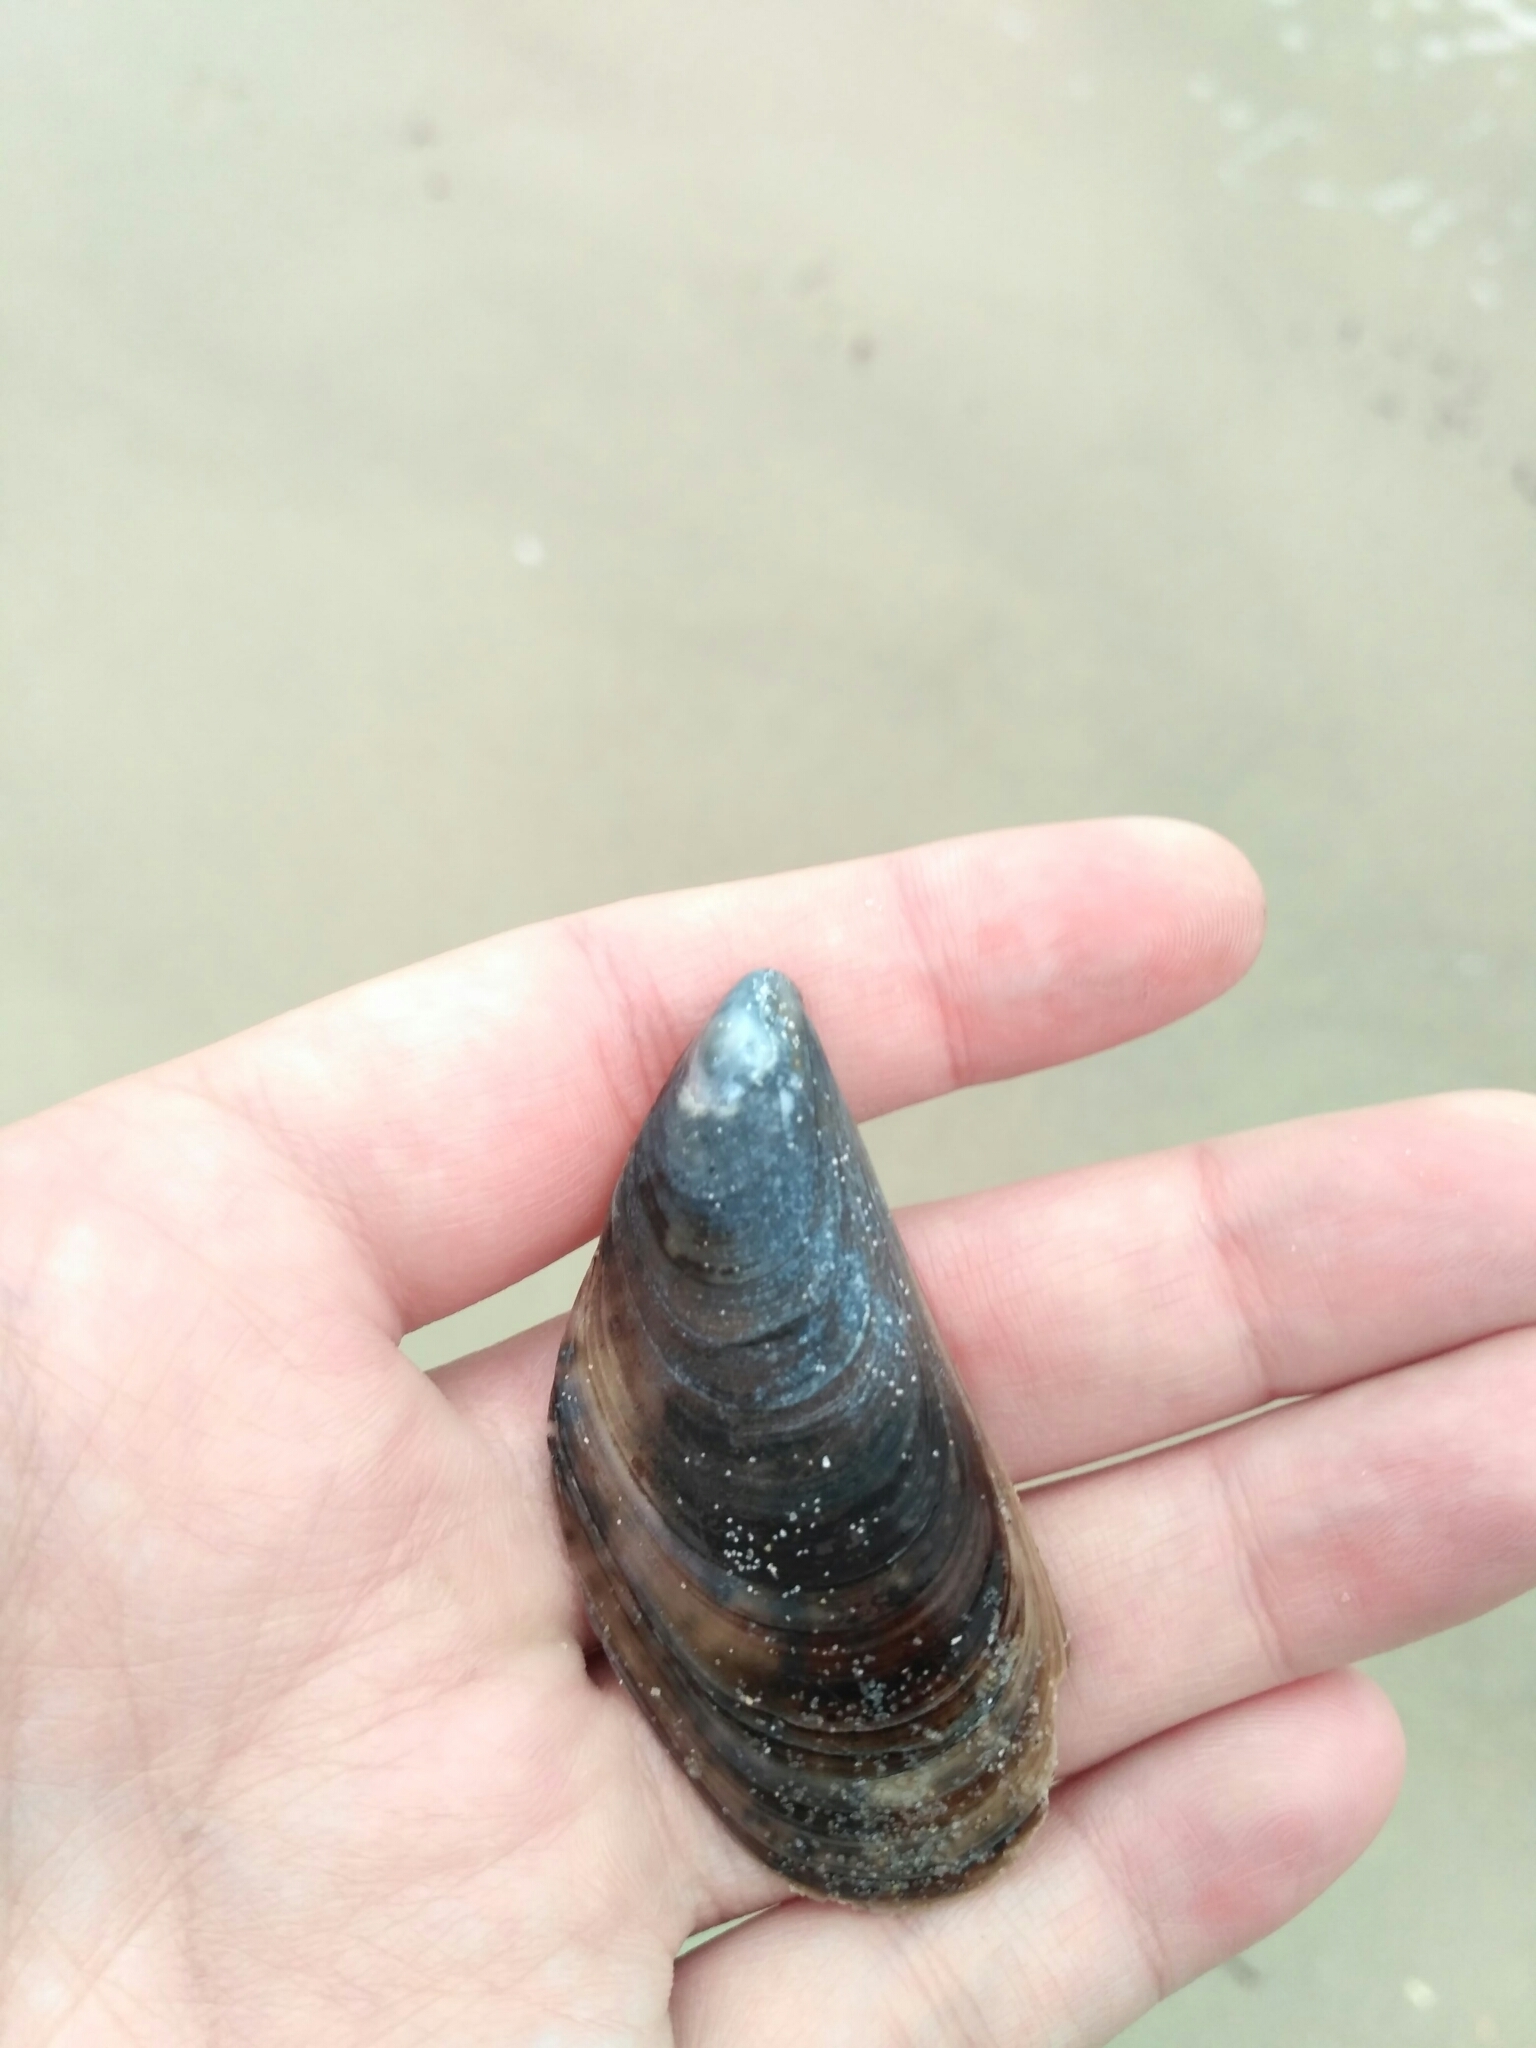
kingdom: Animalia
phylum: Mollusca
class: Bivalvia
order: Mytilida
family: Mytilidae
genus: Mytilus
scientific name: Mytilus galloprovincialis
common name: Mediterranean mussel
